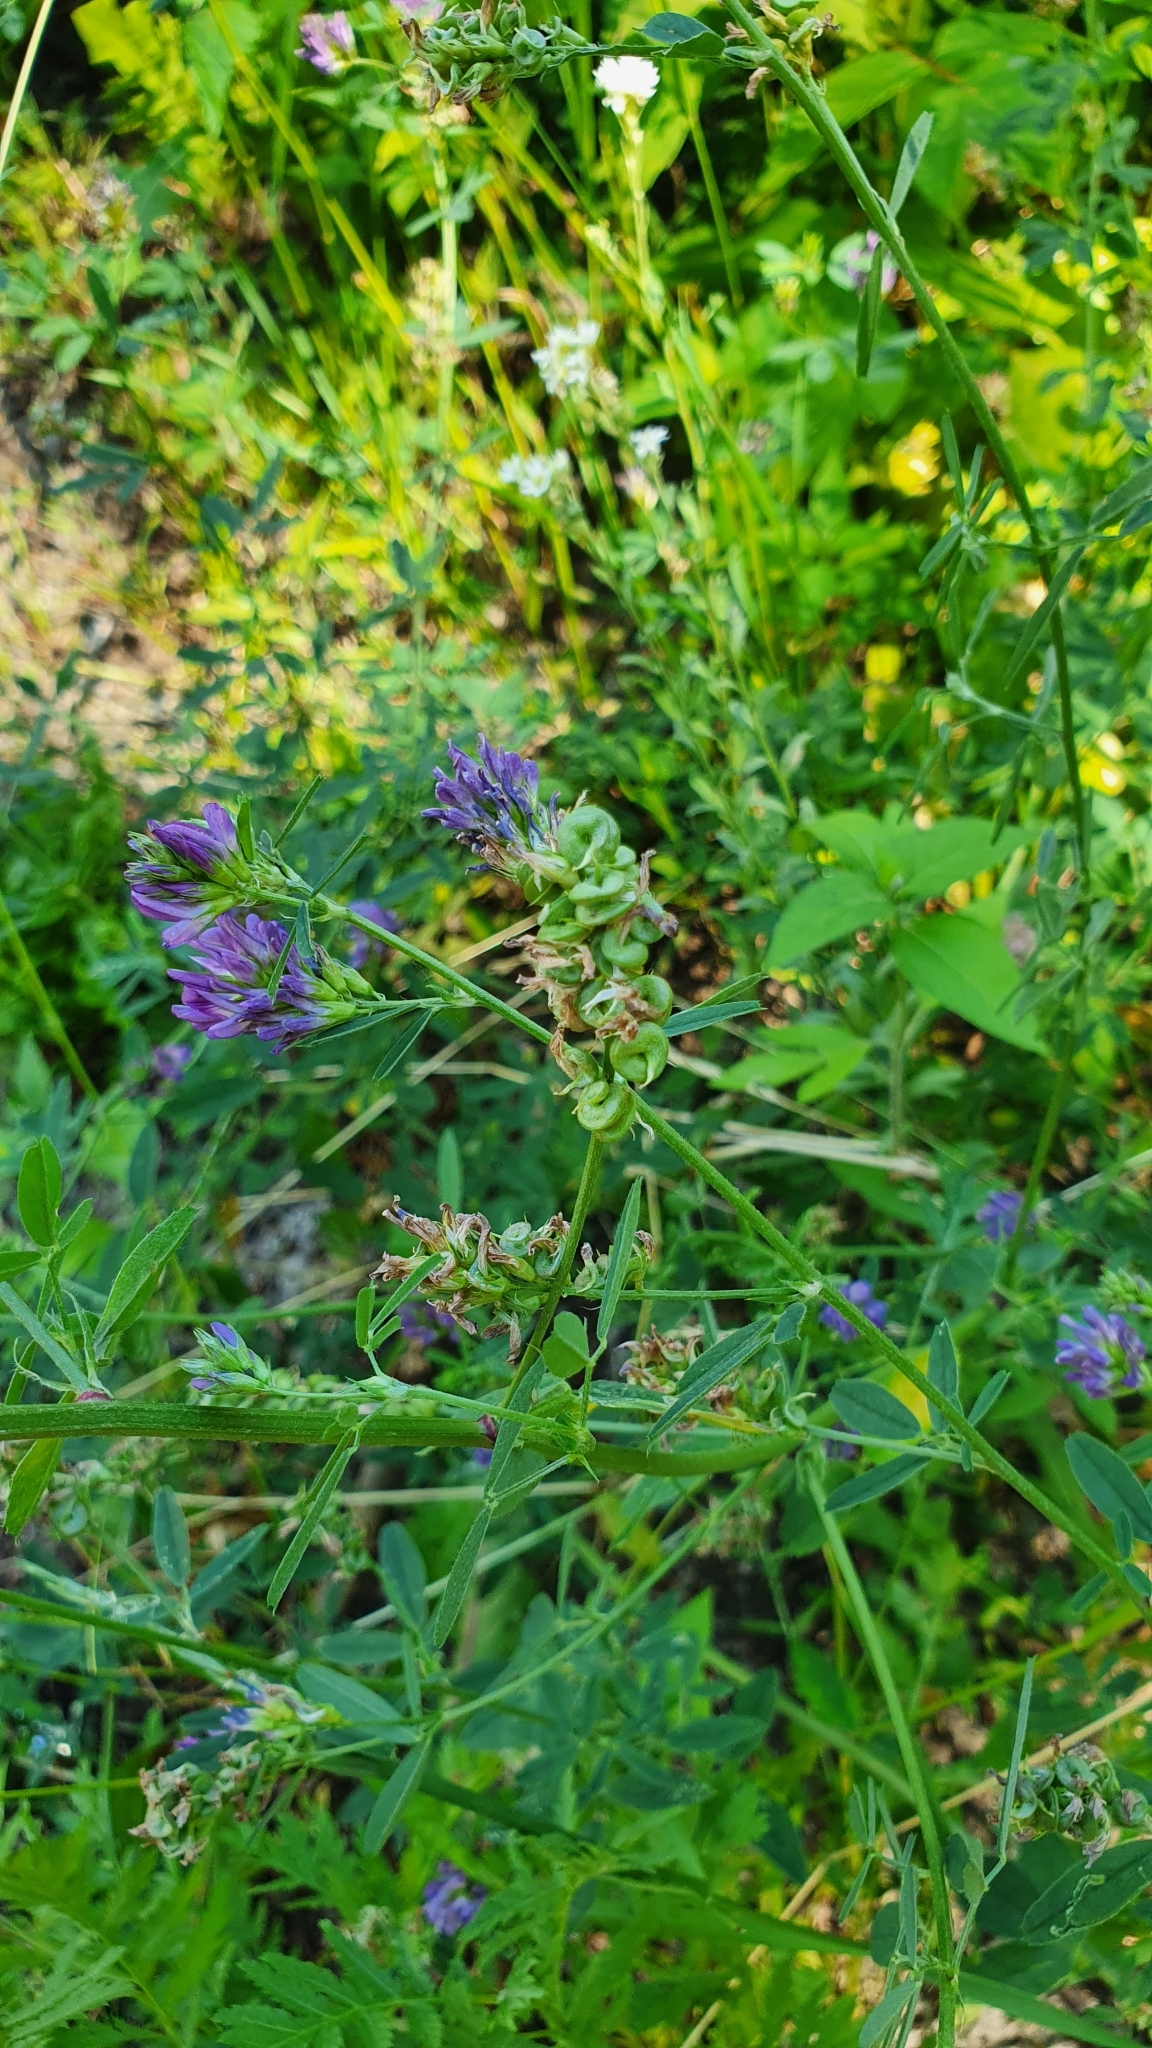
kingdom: Plantae
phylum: Tracheophyta
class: Magnoliopsida
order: Fabales
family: Fabaceae
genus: Medicago
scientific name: Medicago sativa
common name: Alfalfa
